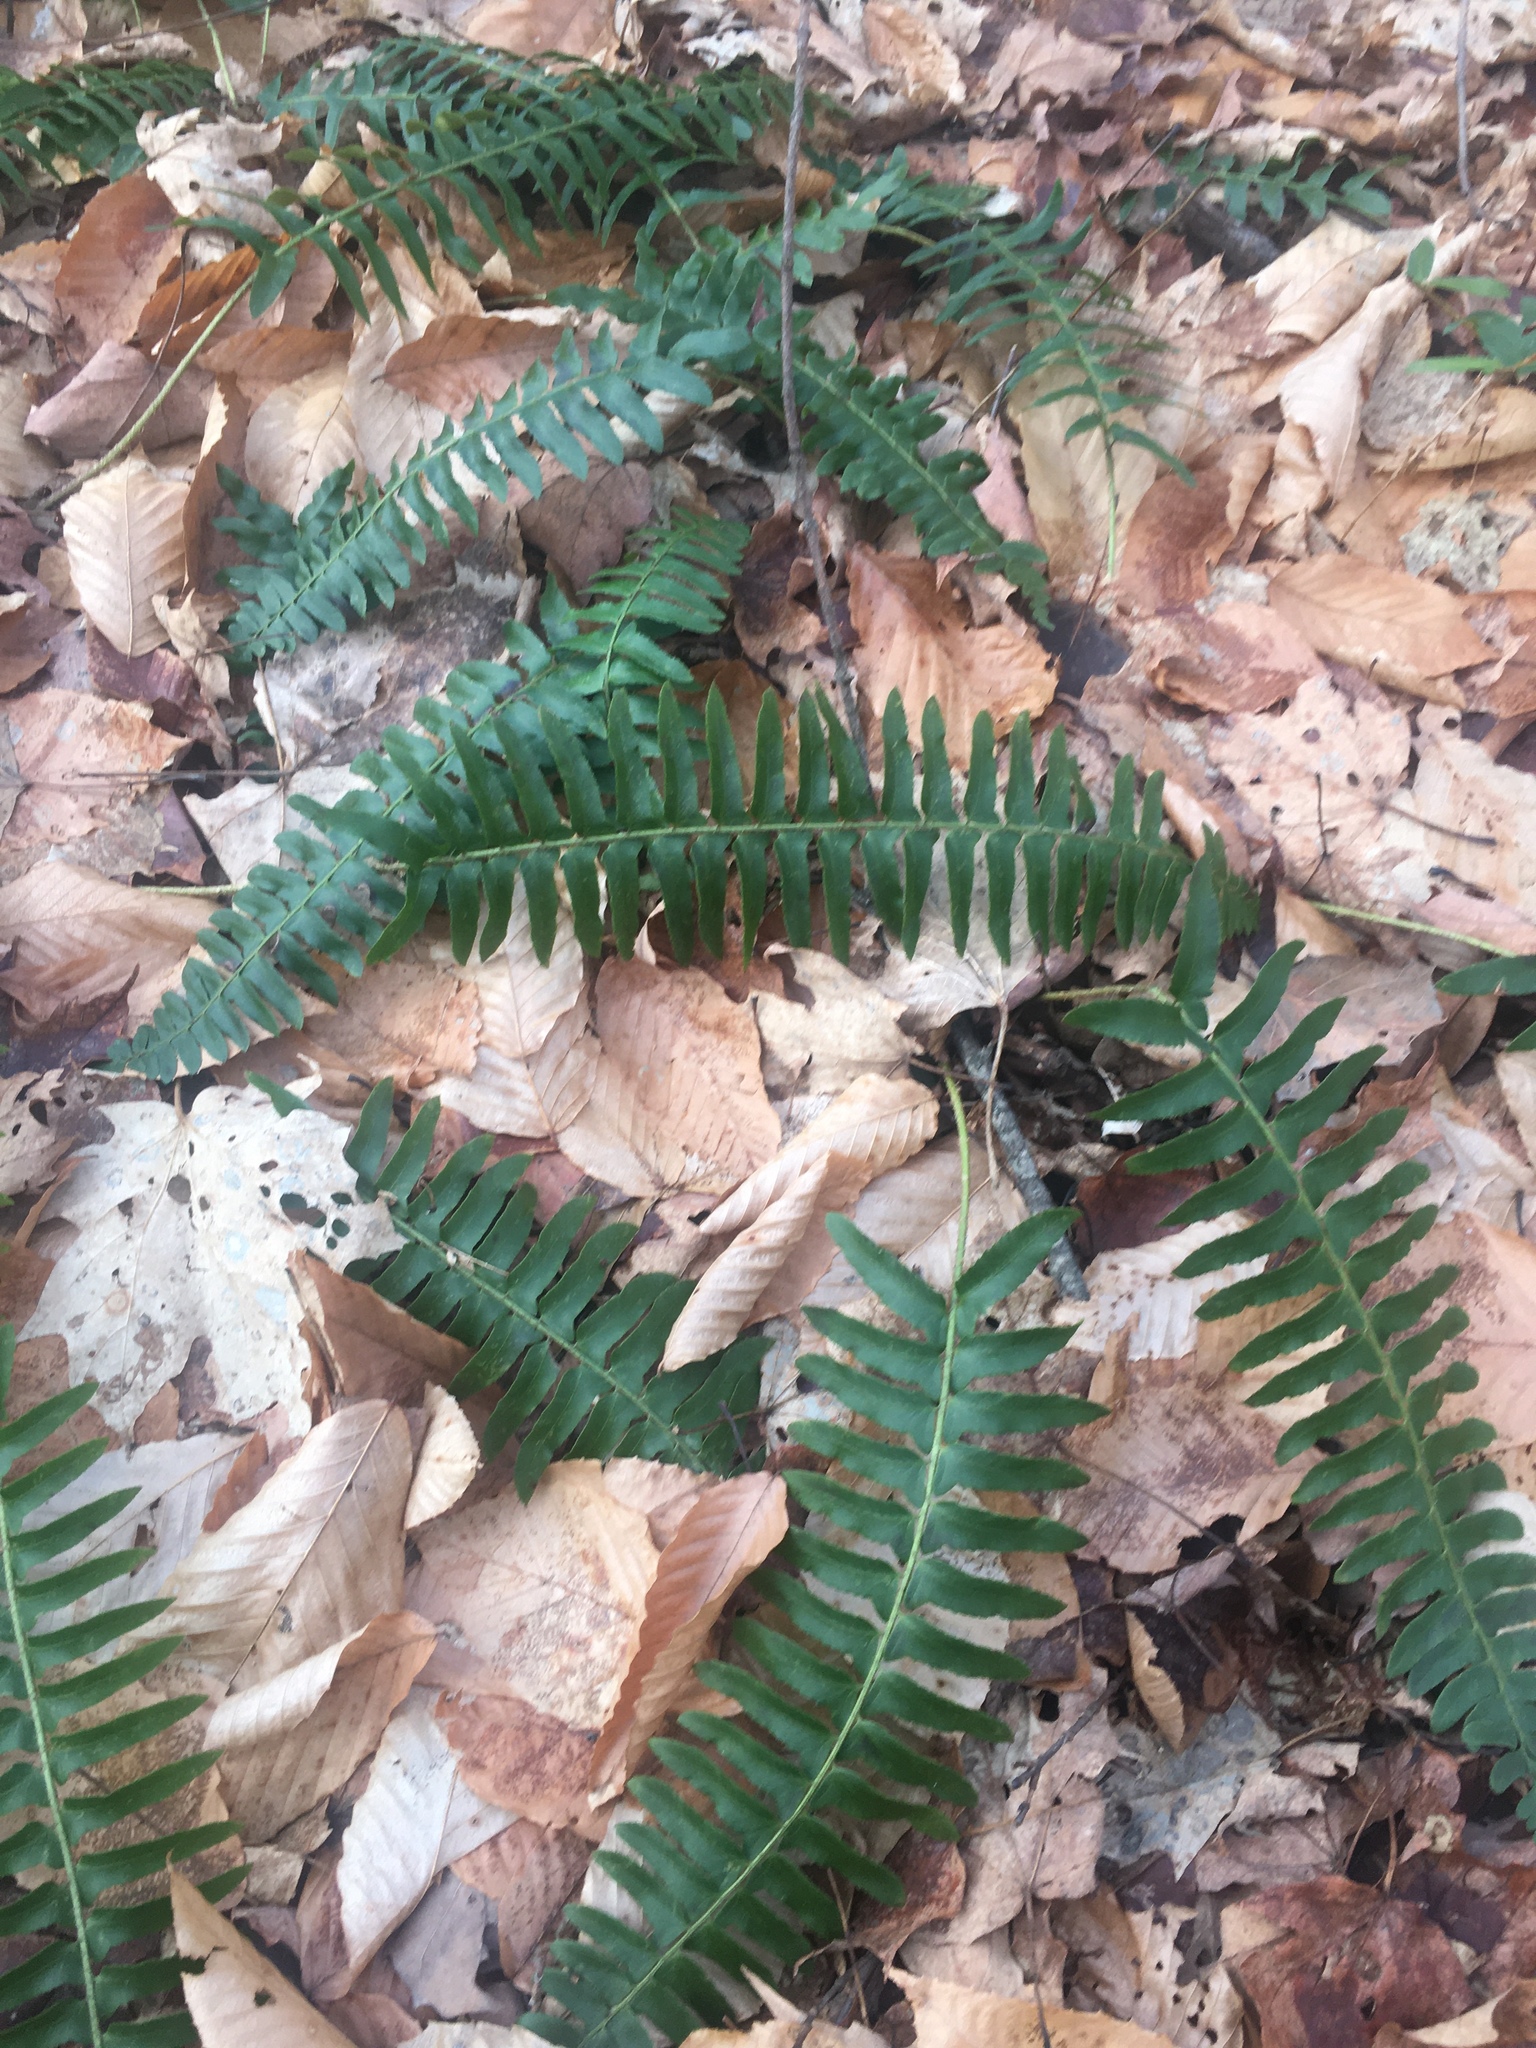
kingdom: Plantae
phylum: Tracheophyta
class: Polypodiopsida
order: Polypodiales
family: Dryopteridaceae
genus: Polystichum
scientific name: Polystichum acrostichoides
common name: Christmas fern
